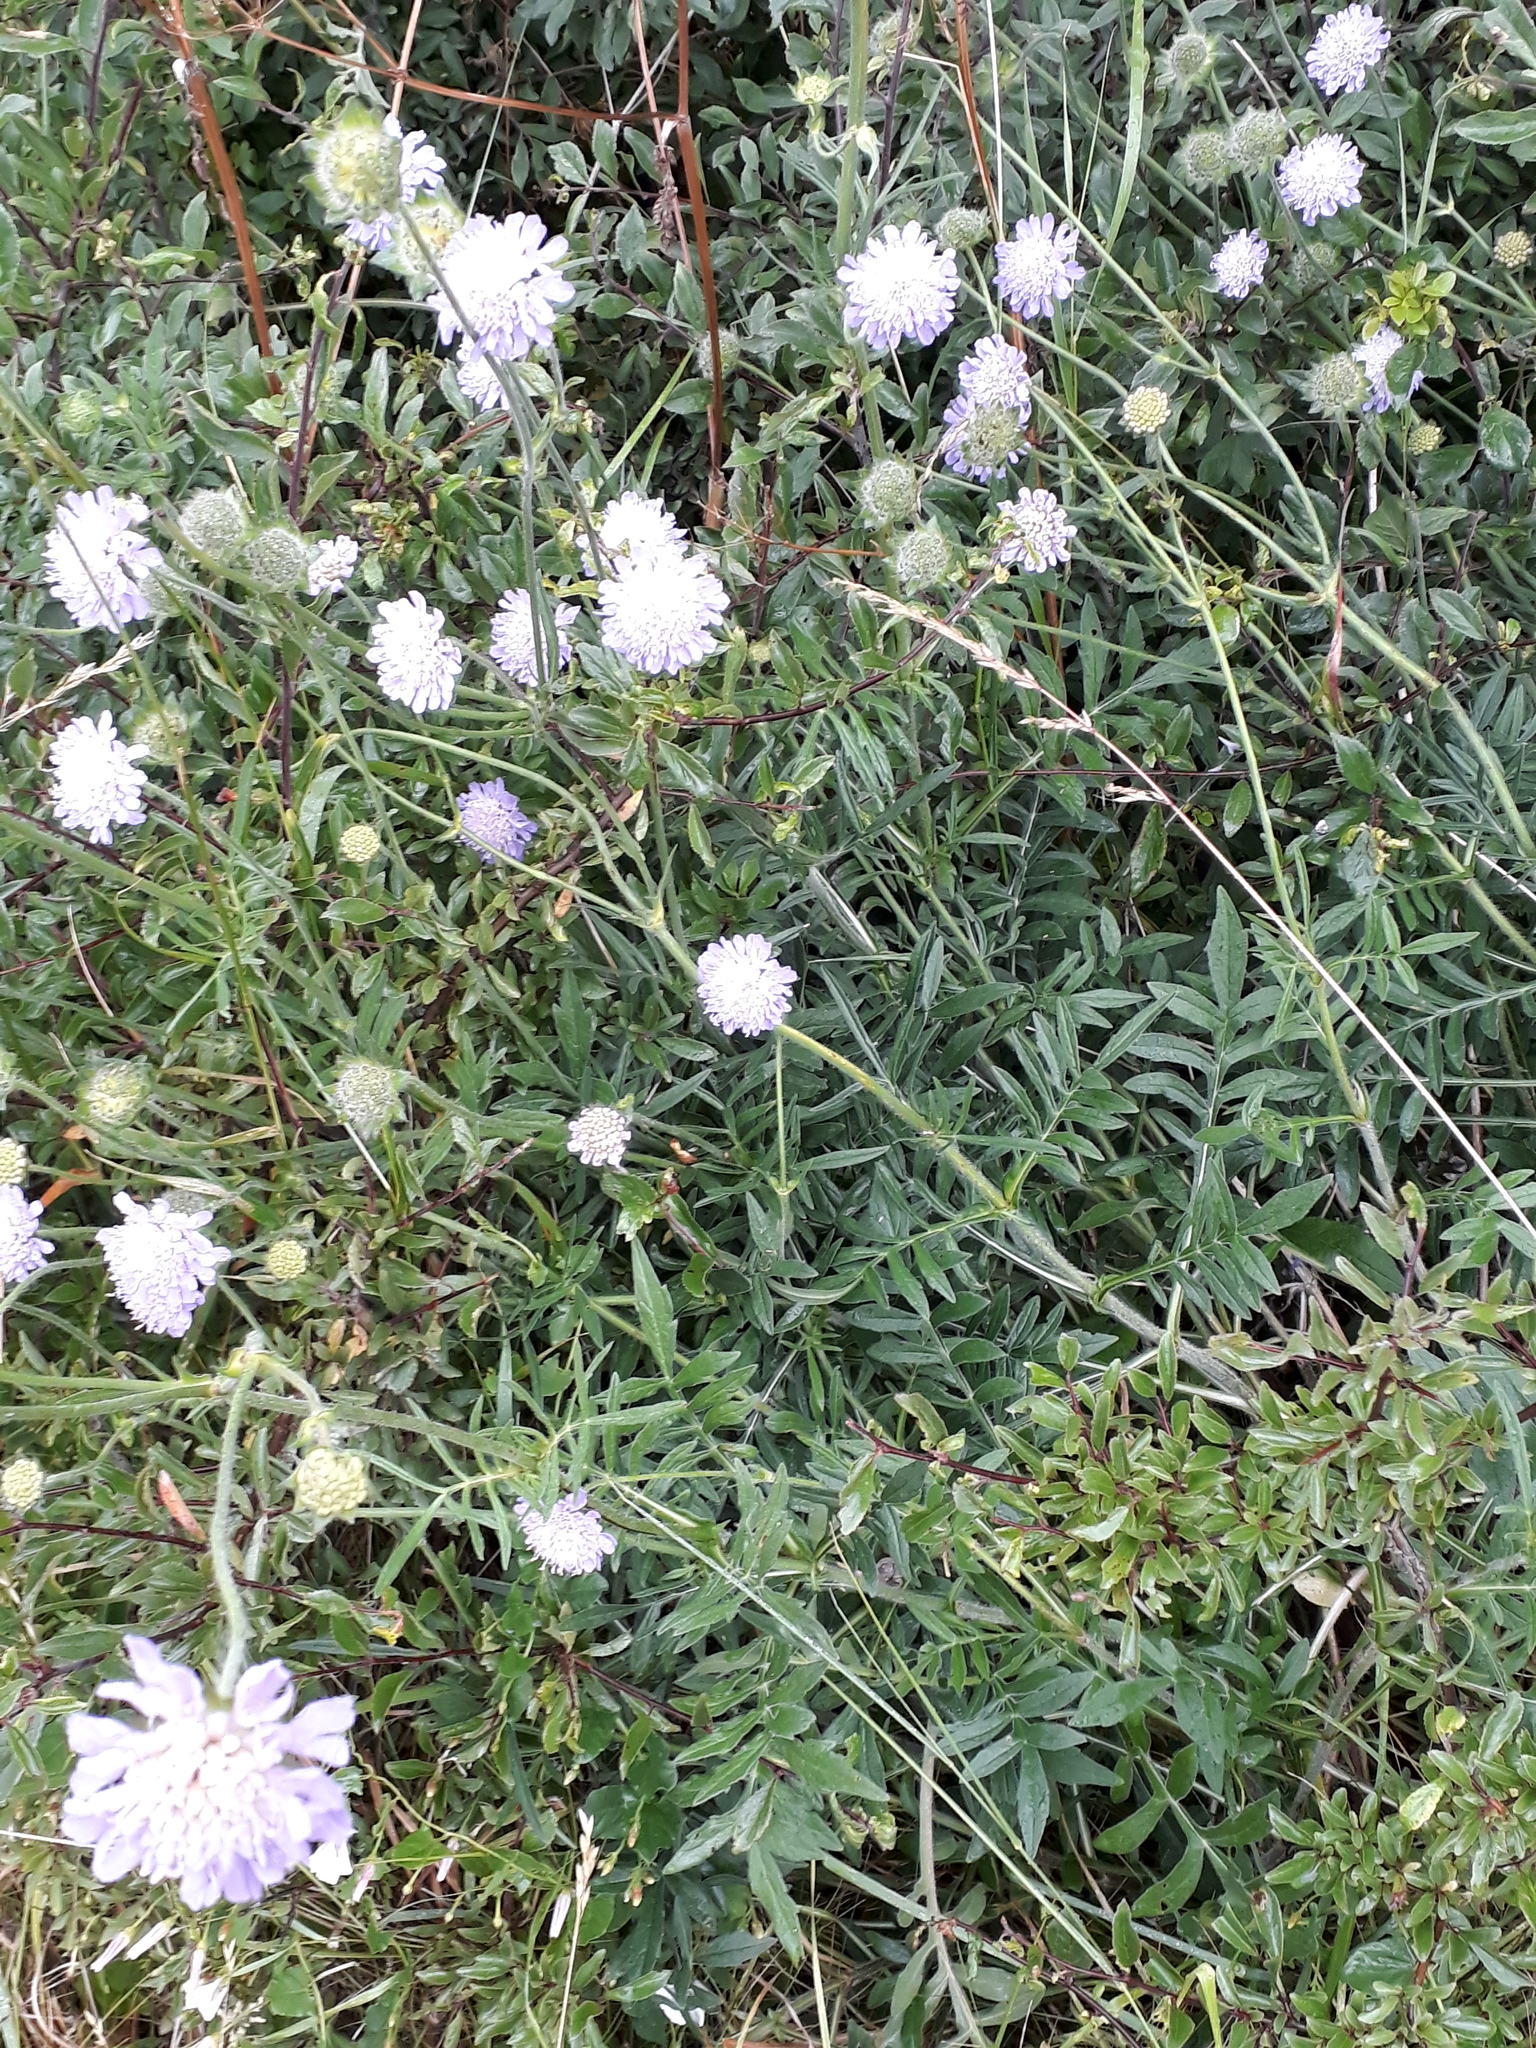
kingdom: Plantae
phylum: Tracheophyta
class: Magnoliopsida
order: Dipsacales
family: Caprifoliaceae
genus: Knautia
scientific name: Knautia arvensis
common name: Field scabiosa
